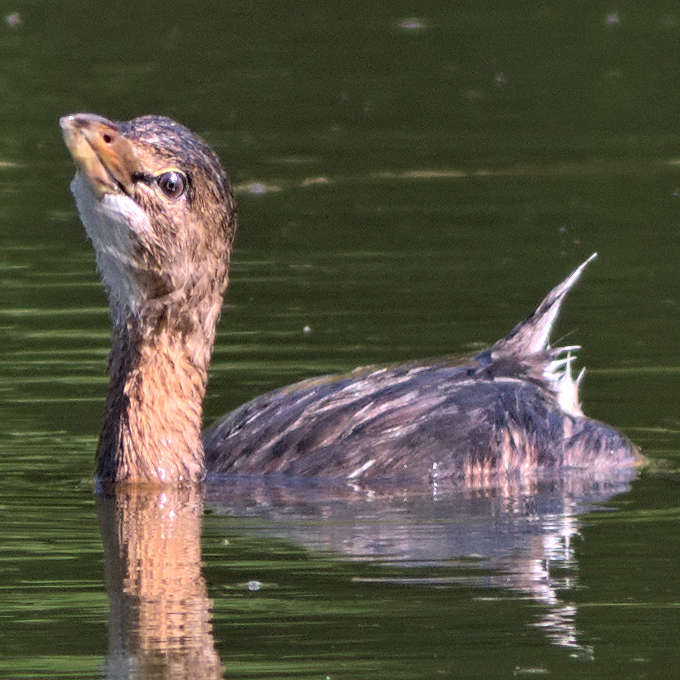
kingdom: Animalia
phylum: Chordata
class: Aves
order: Podicipediformes
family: Podicipedidae
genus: Podilymbus
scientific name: Podilymbus podiceps
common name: Pied-billed grebe
